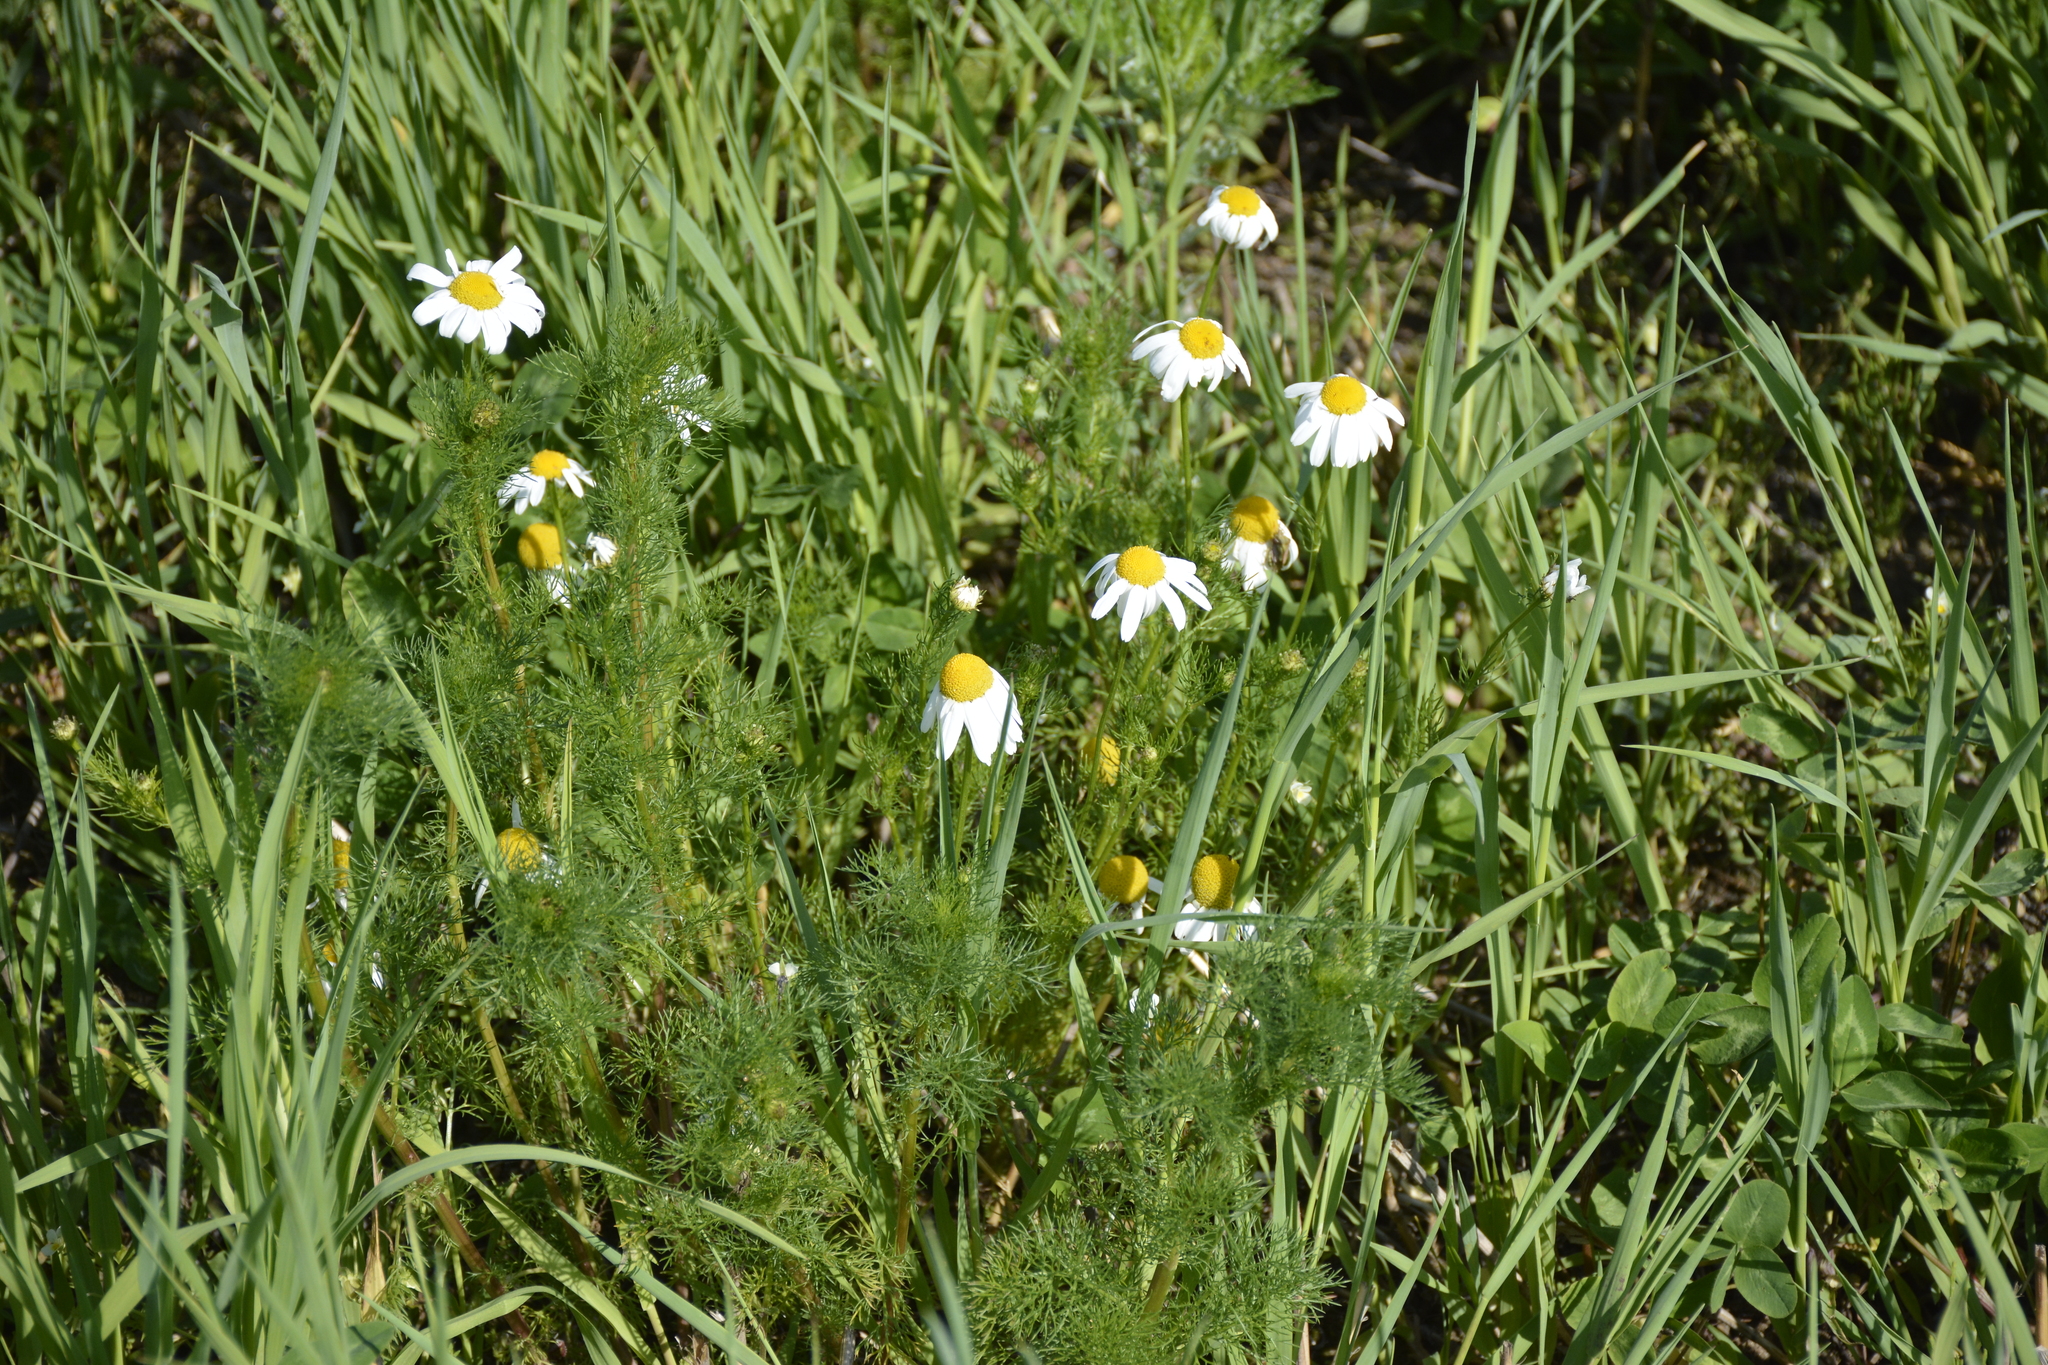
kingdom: Plantae
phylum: Tracheophyta
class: Magnoliopsida
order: Asterales
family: Asteraceae
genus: Tripleurospermum
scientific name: Tripleurospermum inodorum
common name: Scentless mayweed
